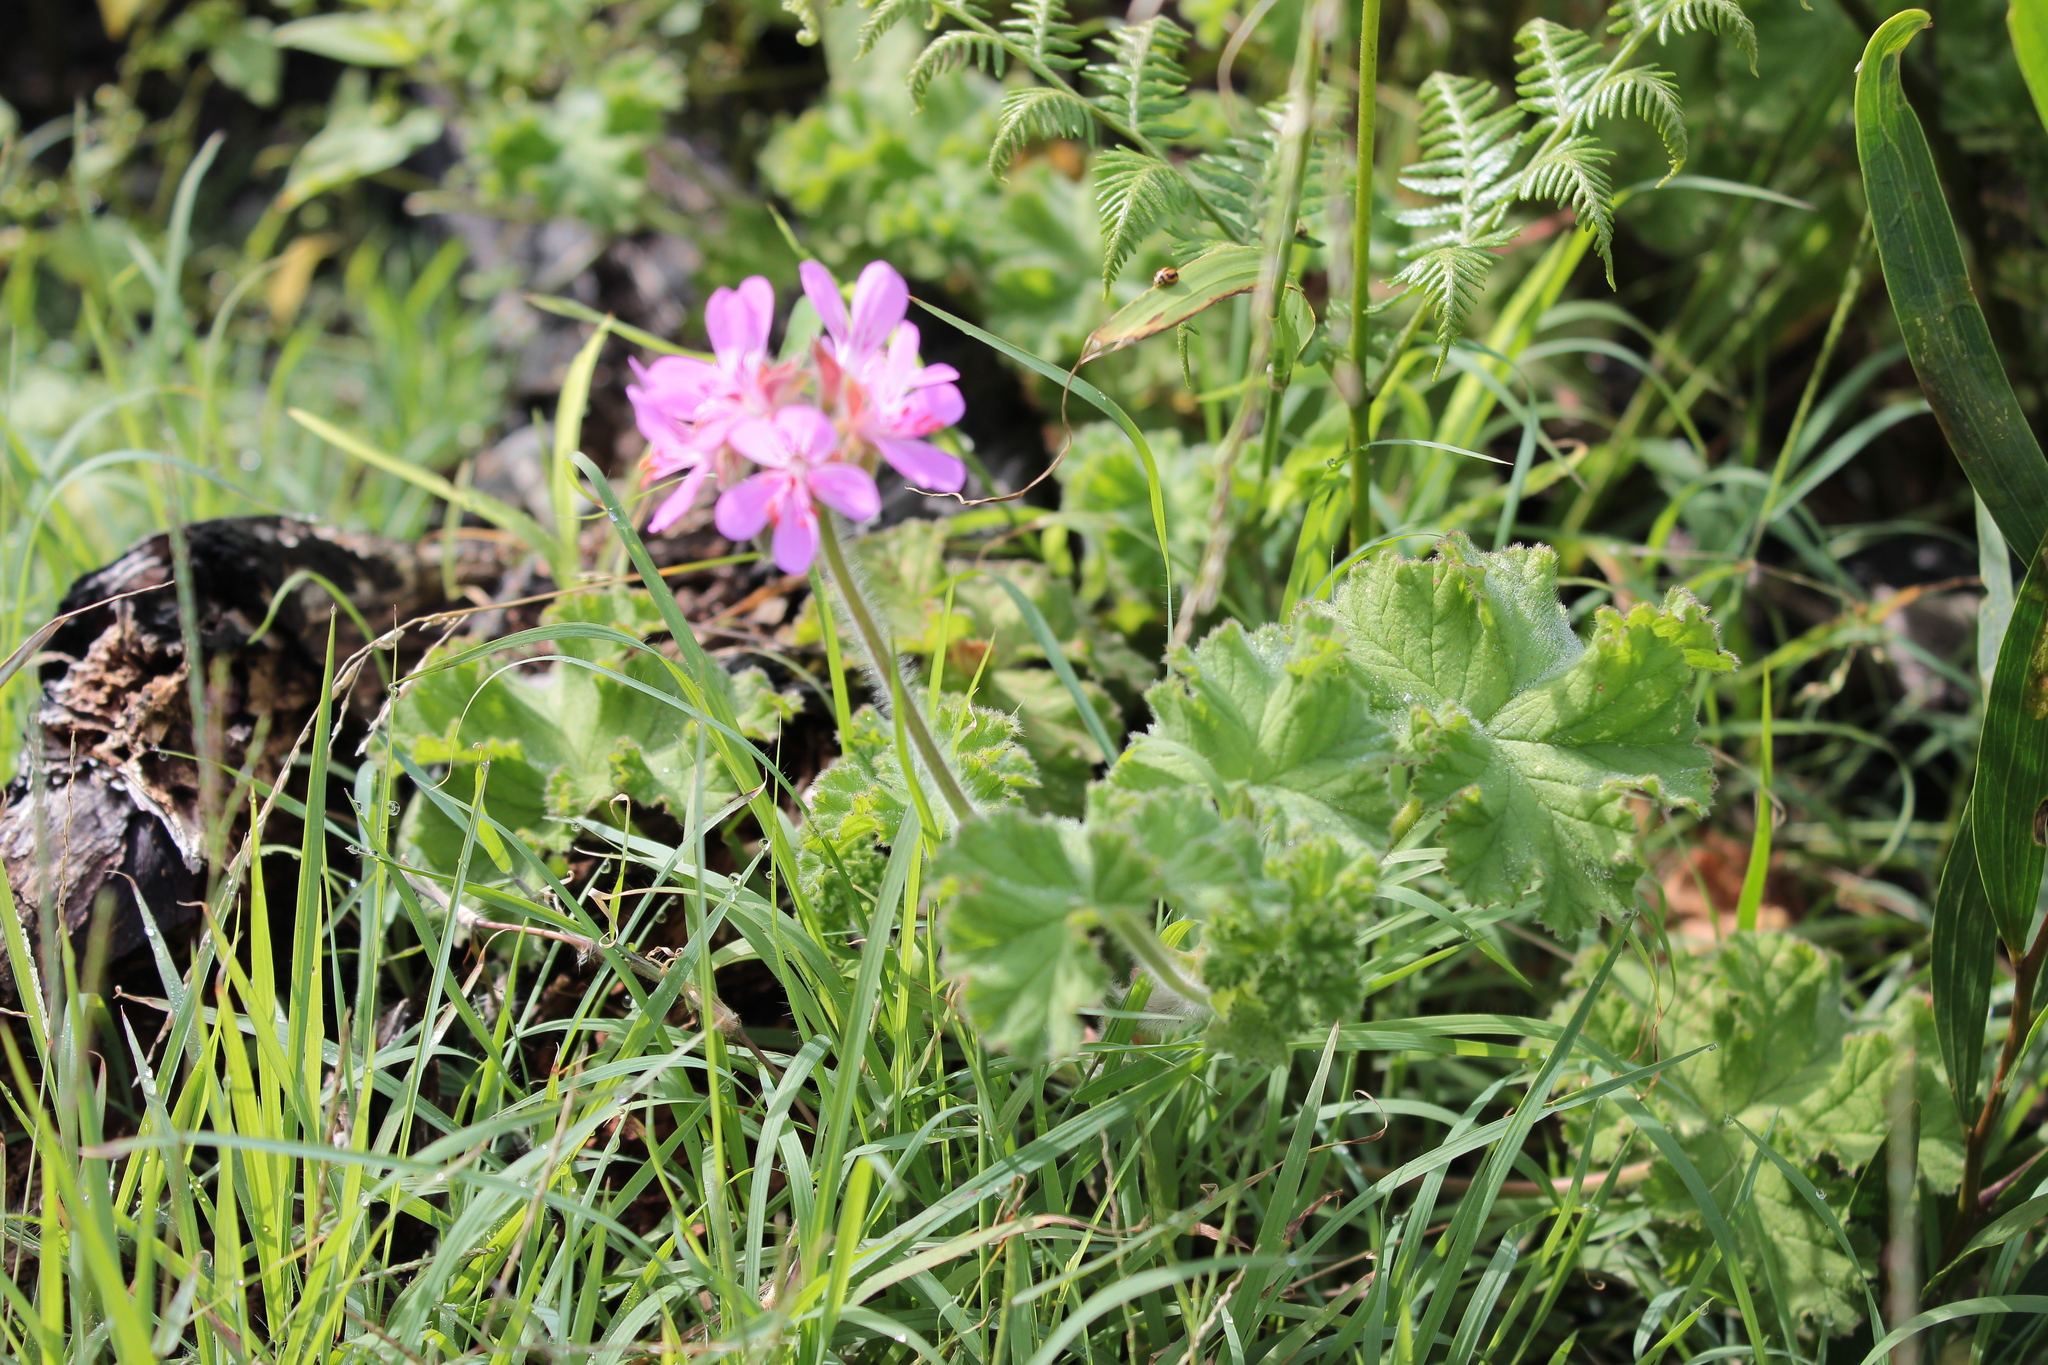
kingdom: Plantae
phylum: Tracheophyta
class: Magnoliopsida
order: Geraniales
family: Geraniaceae
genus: Pelargonium
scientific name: Pelargonium capitatum
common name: Rose scented geranium
